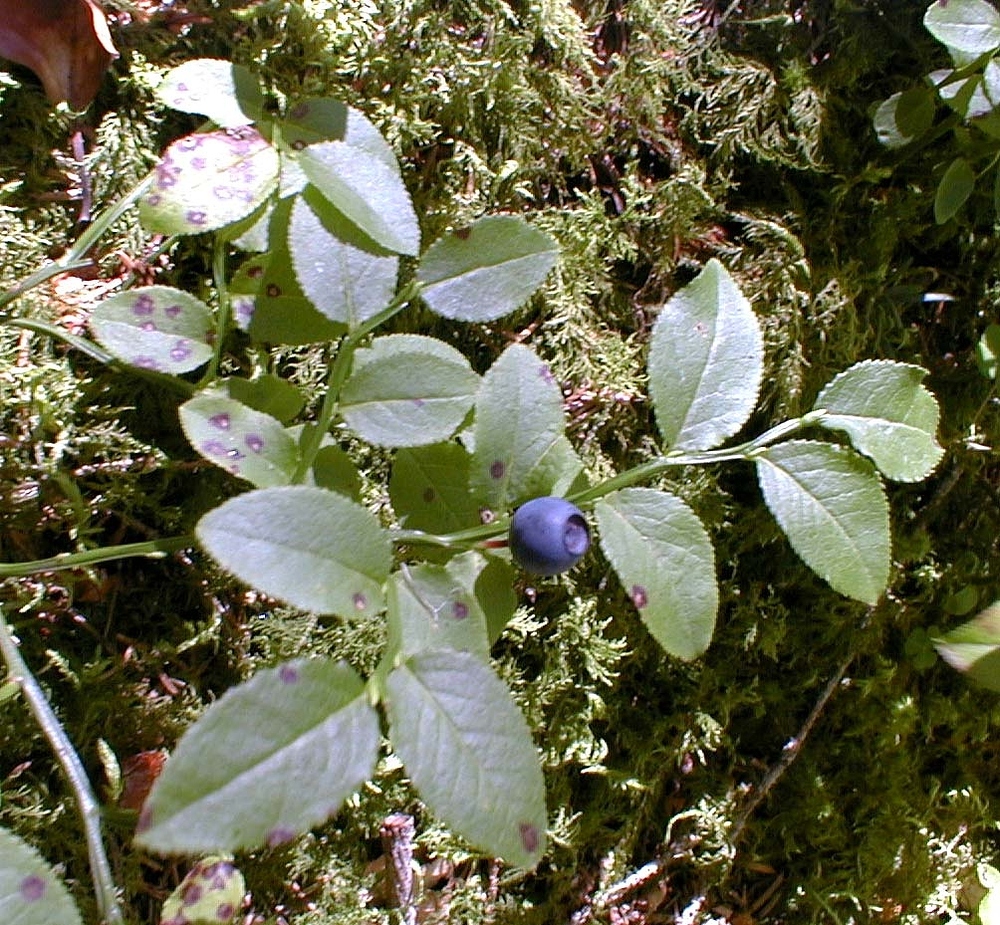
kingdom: Plantae
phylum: Tracheophyta
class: Magnoliopsida
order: Ericales
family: Ericaceae
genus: Vaccinium
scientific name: Vaccinium myrtillus
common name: Bilberry
